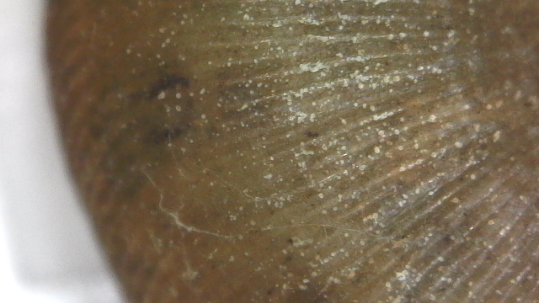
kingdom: Animalia
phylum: Mollusca
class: Gastropoda
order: Stylommatophora
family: Polygyridae
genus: Triodopsis
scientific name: Triodopsis complanata
